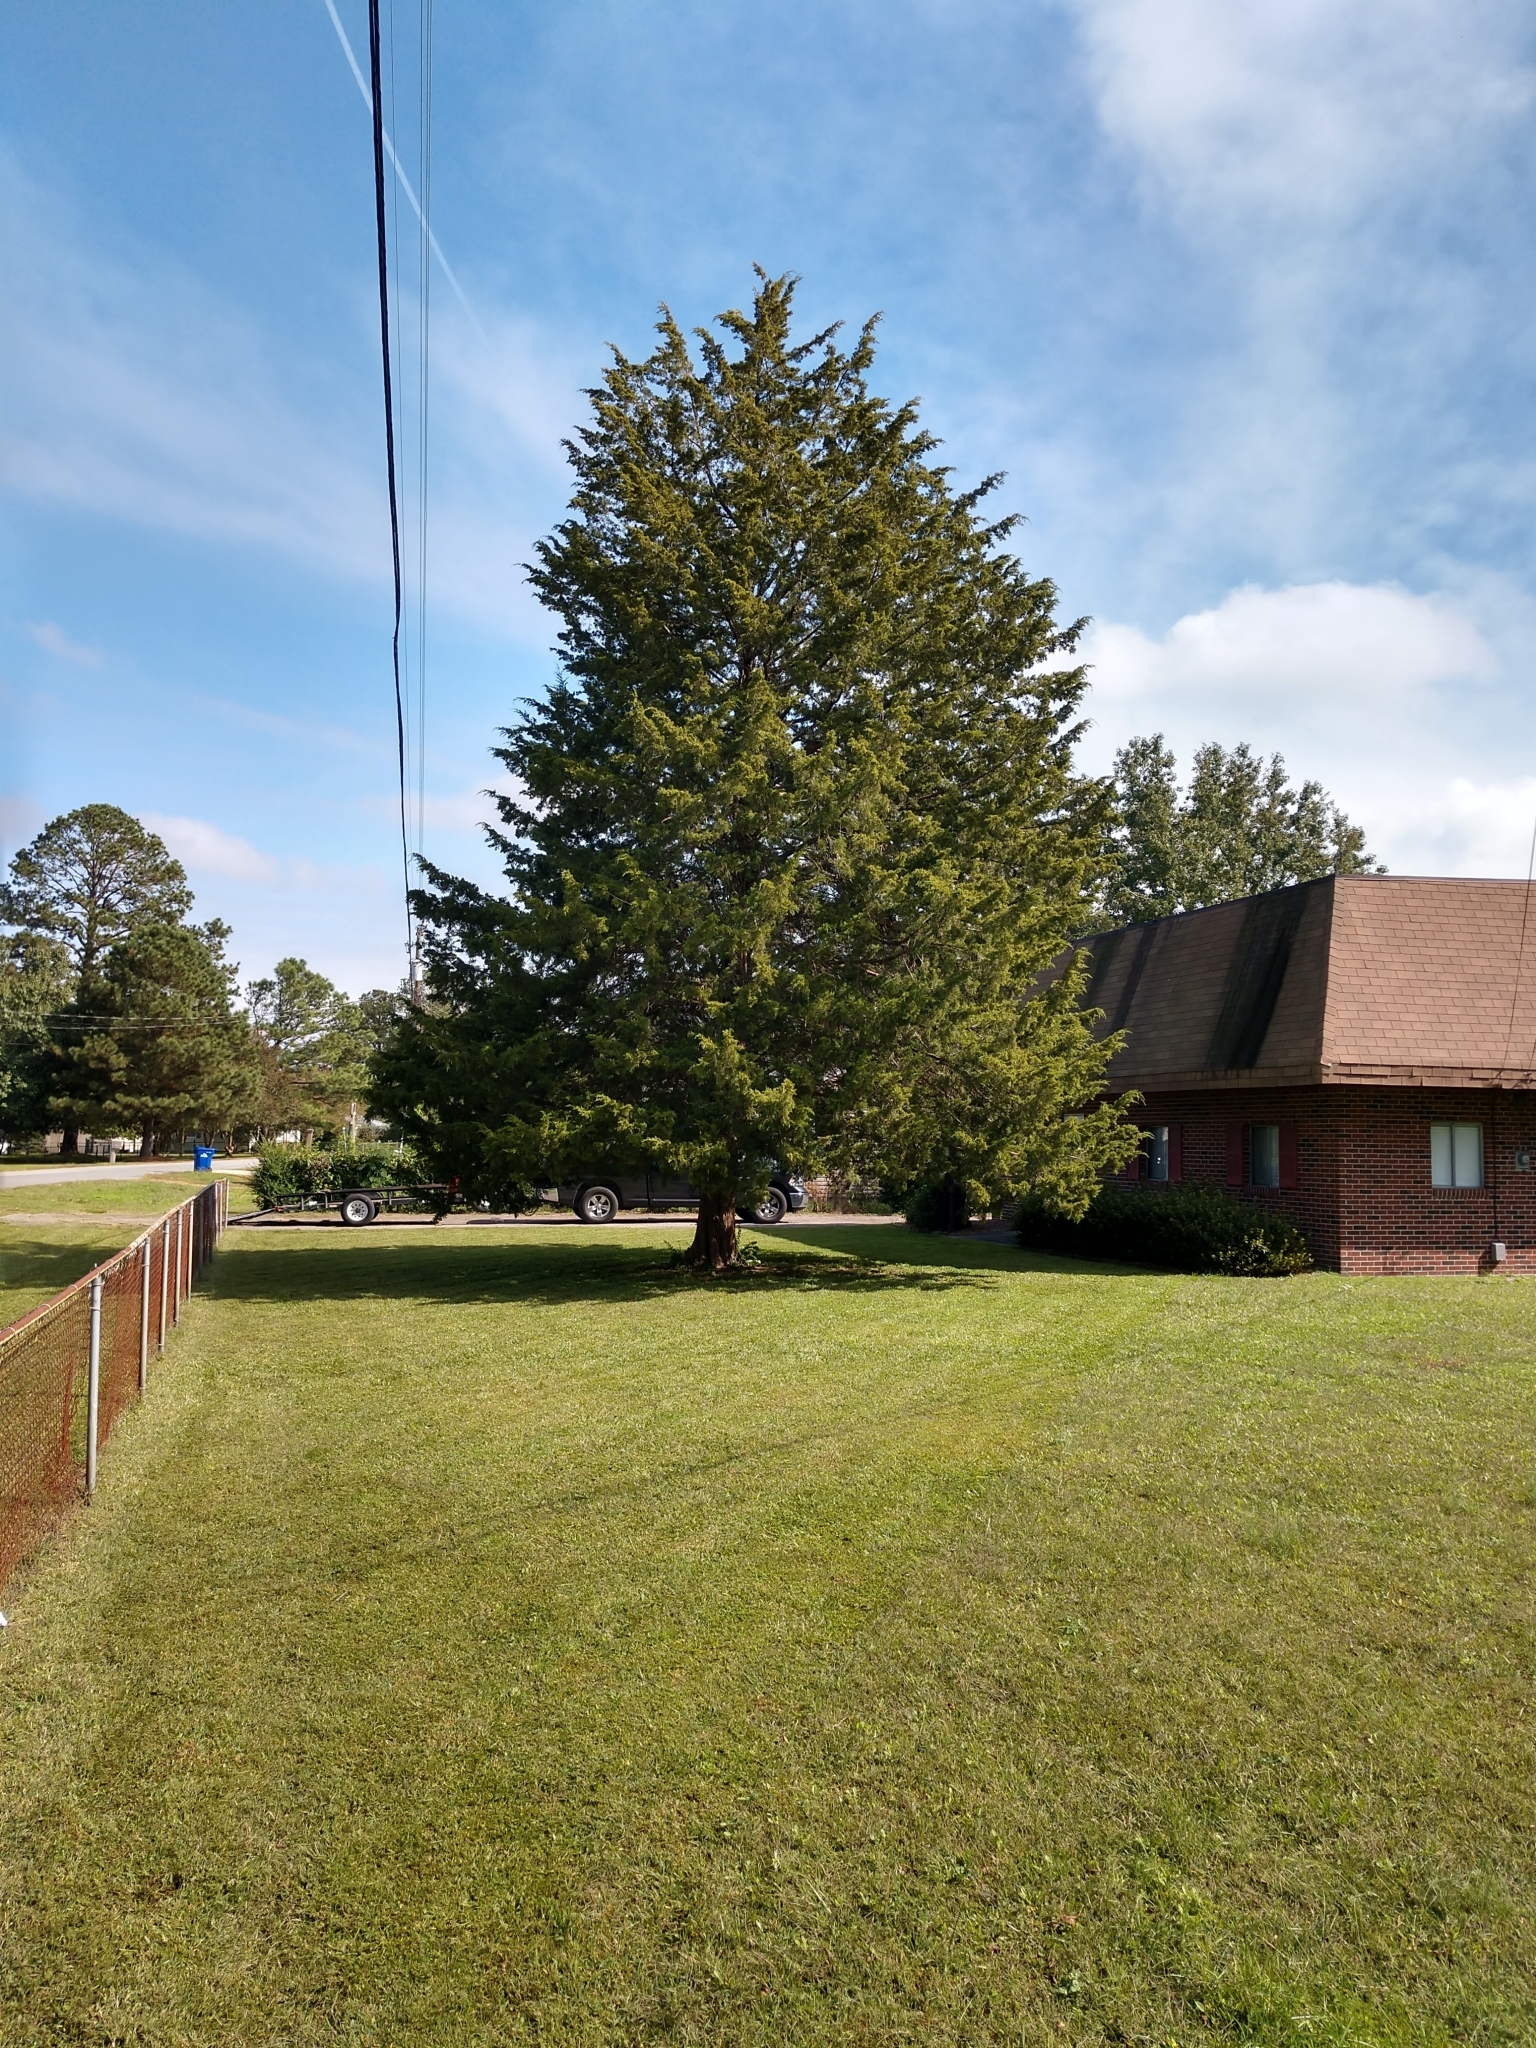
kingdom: Plantae
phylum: Tracheophyta
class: Pinopsida
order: Pinales
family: Cupressaceae
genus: Juniperus
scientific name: Juniperus virginiana
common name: Red juniper
